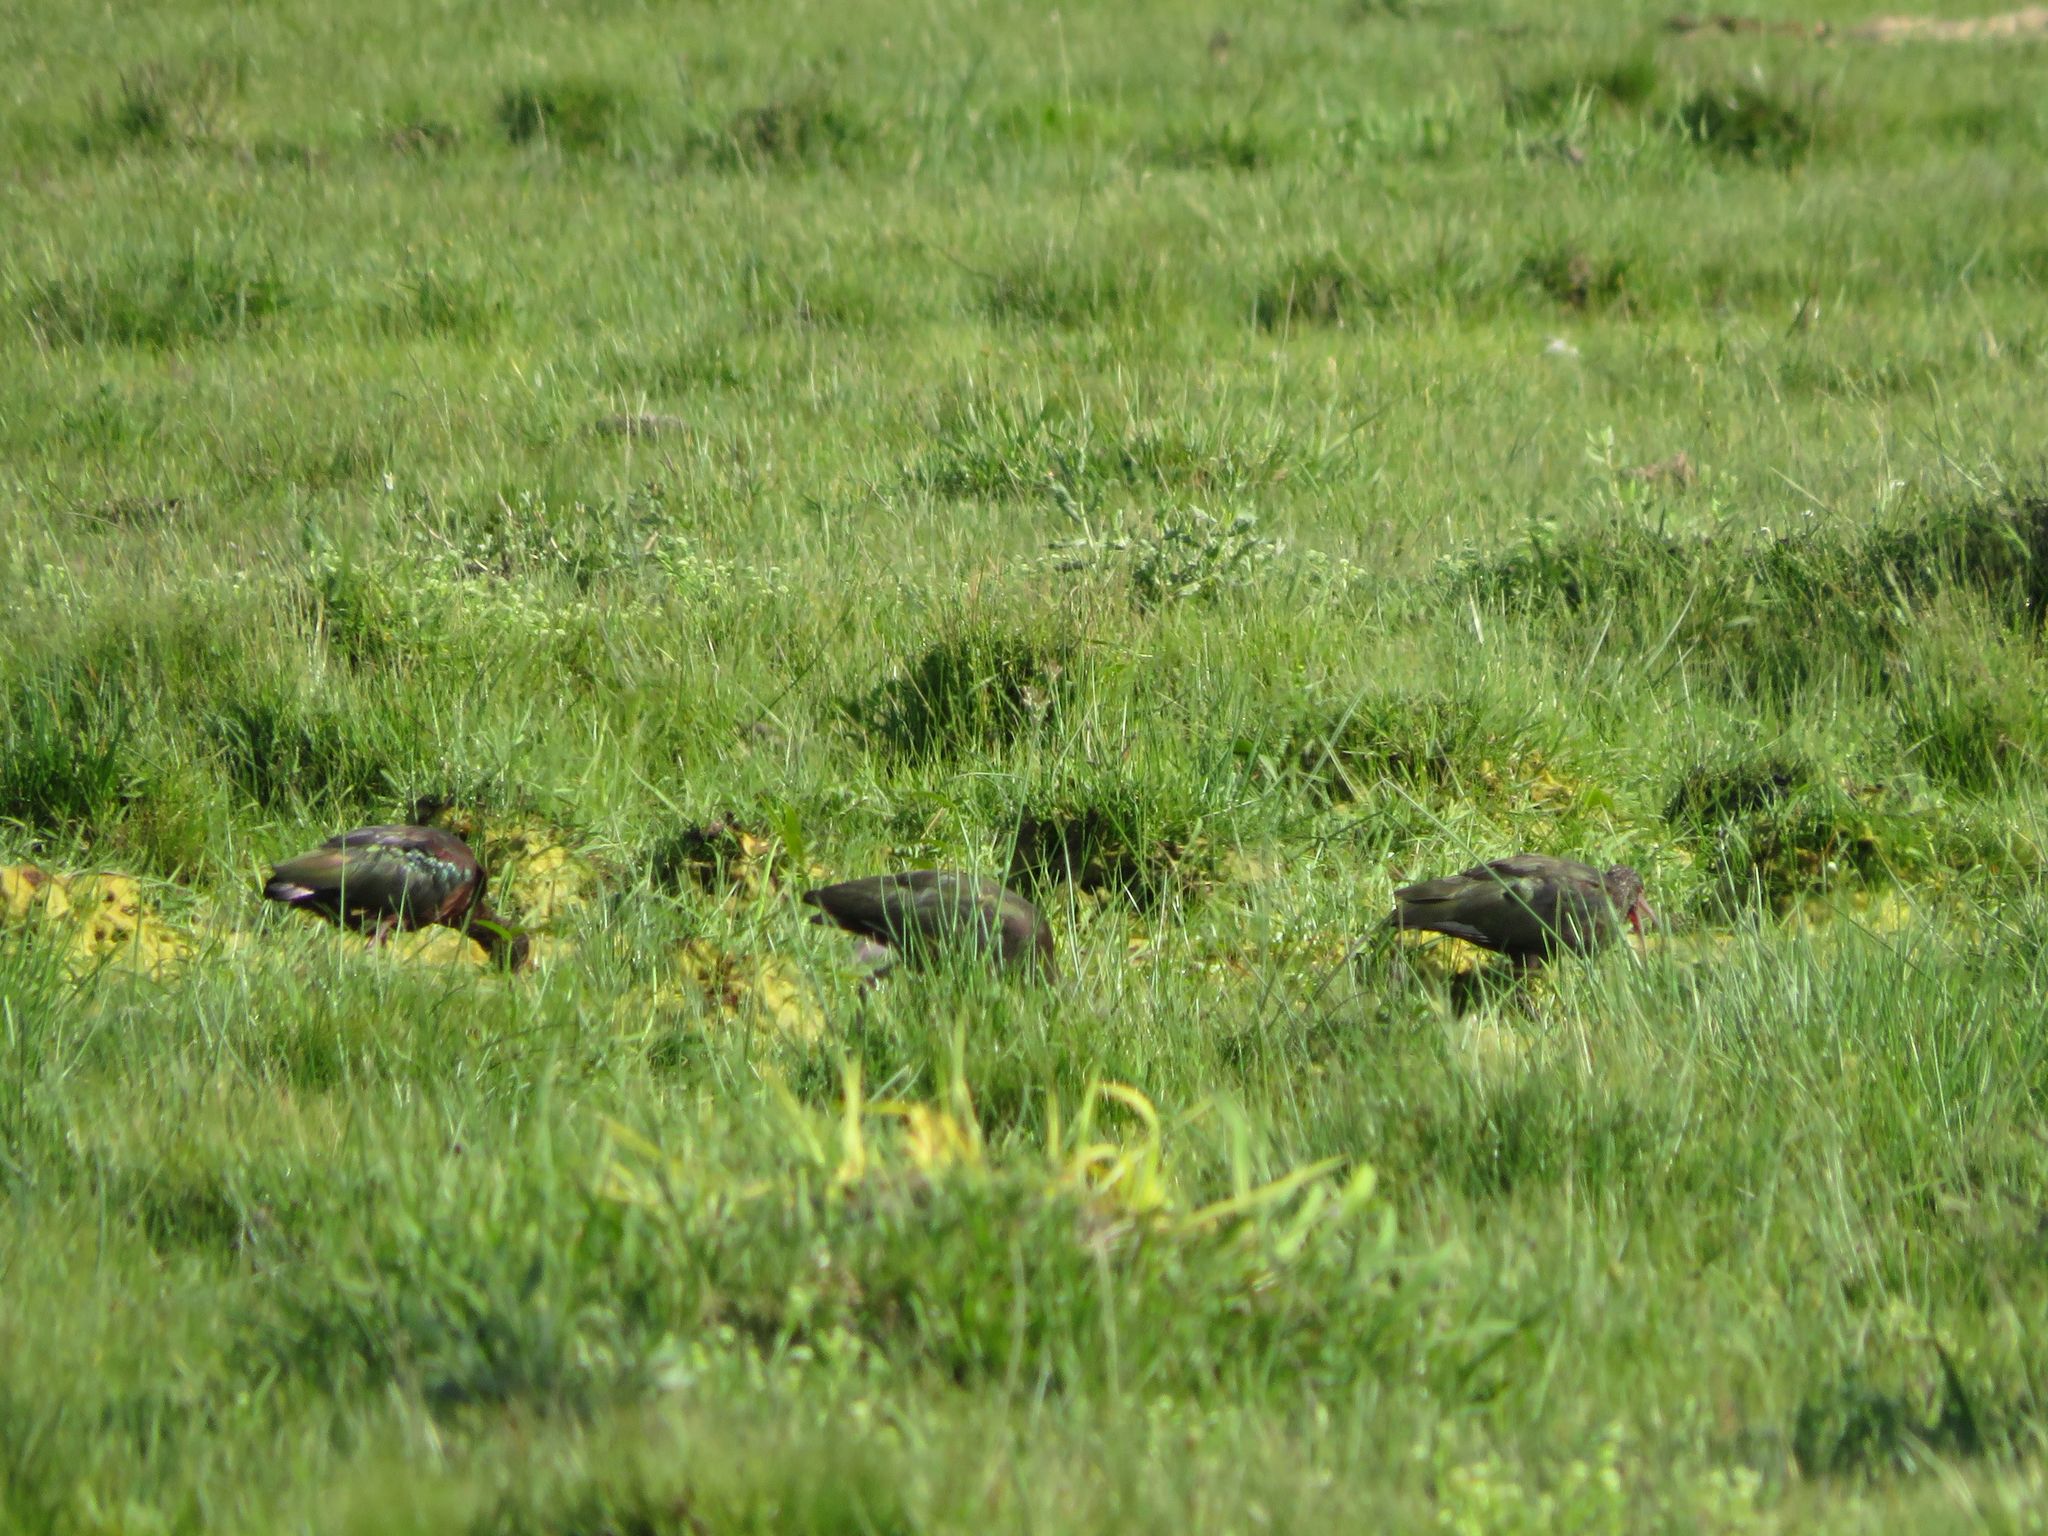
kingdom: Animalia
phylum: Chordata
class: Aves
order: Pelecaniformes
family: Threskiornithidae
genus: Plegadis
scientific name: Plegadis chihi
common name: White-faced ibis
